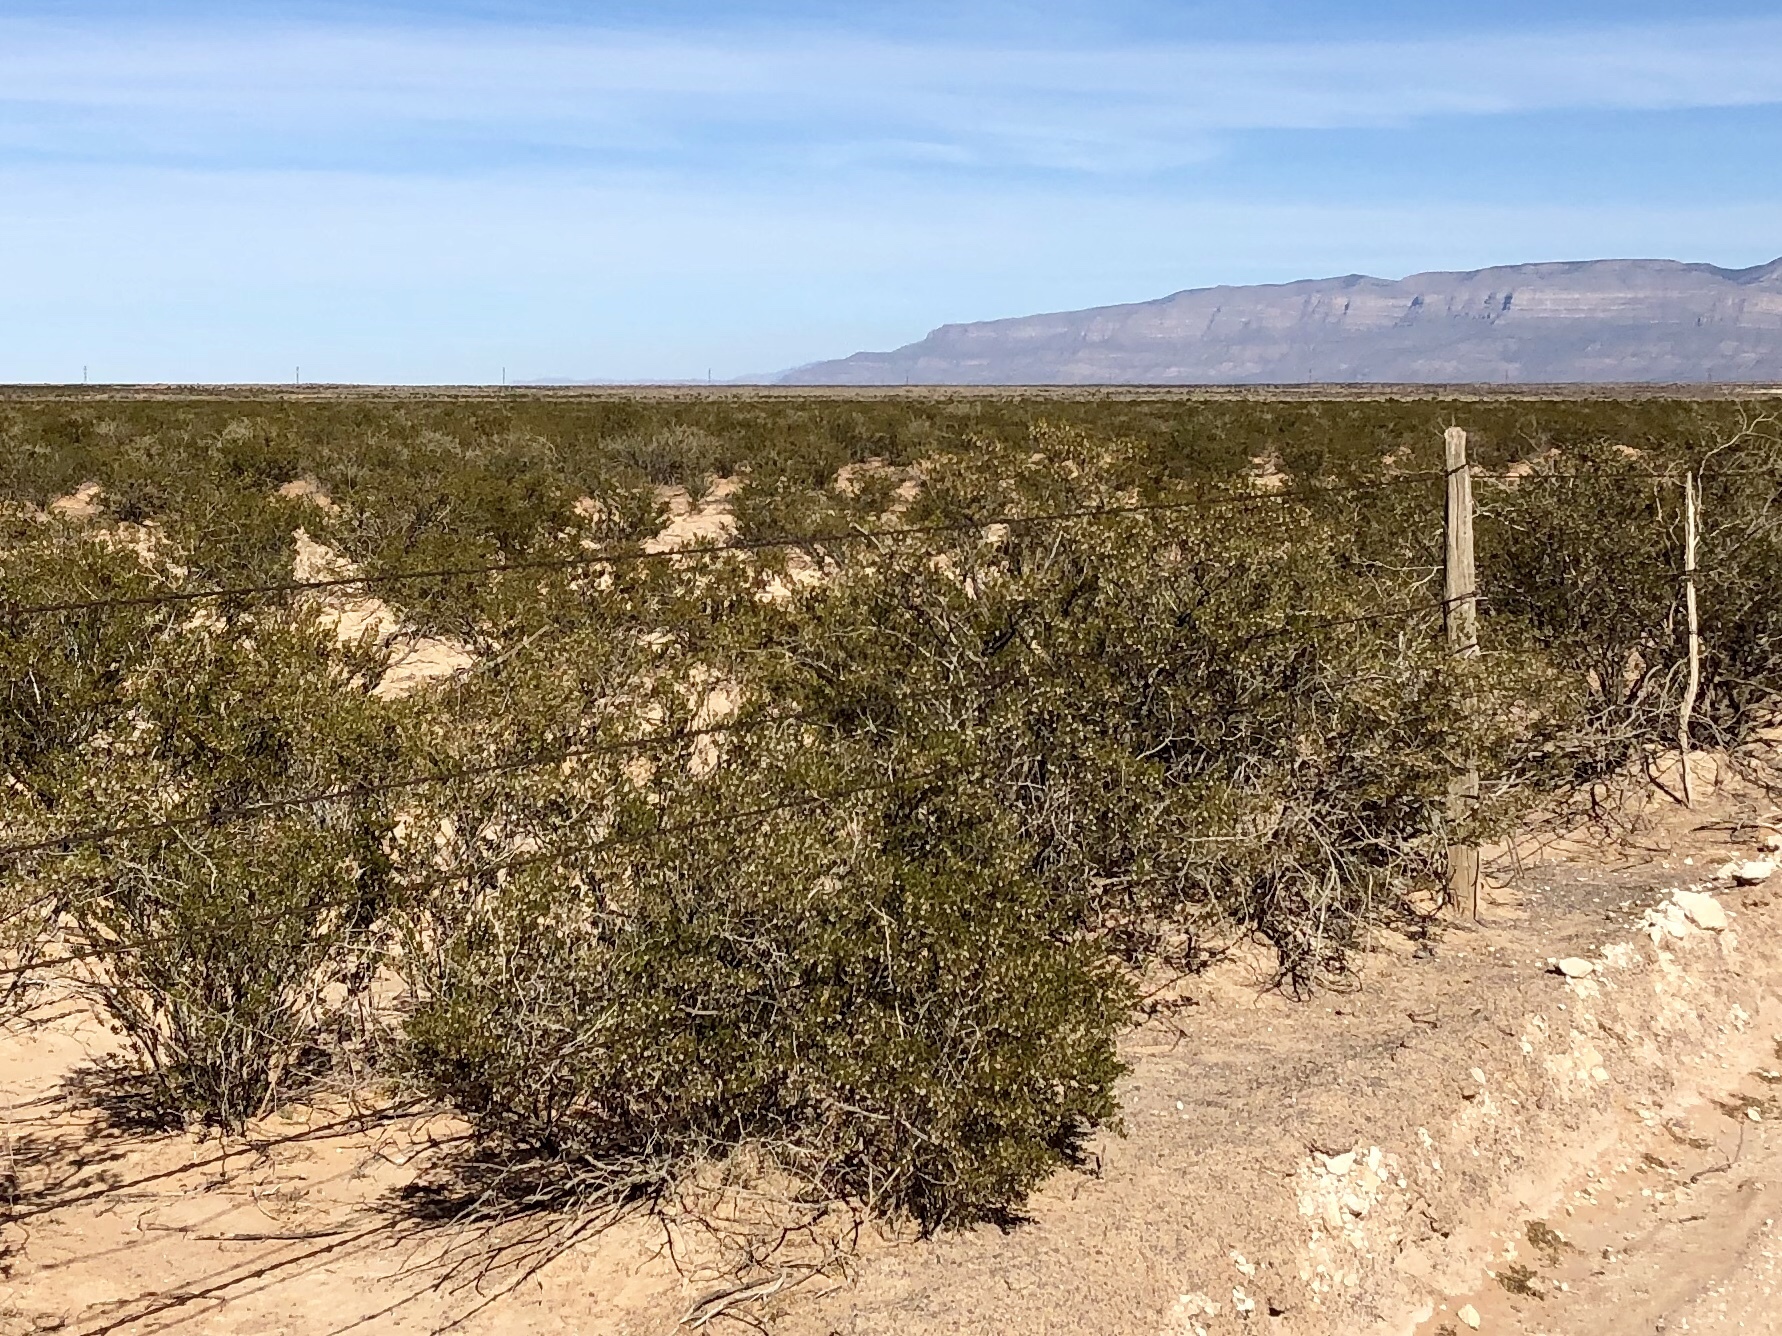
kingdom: Plantae
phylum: Tracheophyta
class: Magnoliopsida
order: Zygophyllales
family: Zygophyllaceae
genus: Larrea
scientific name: Larrea tridentata
